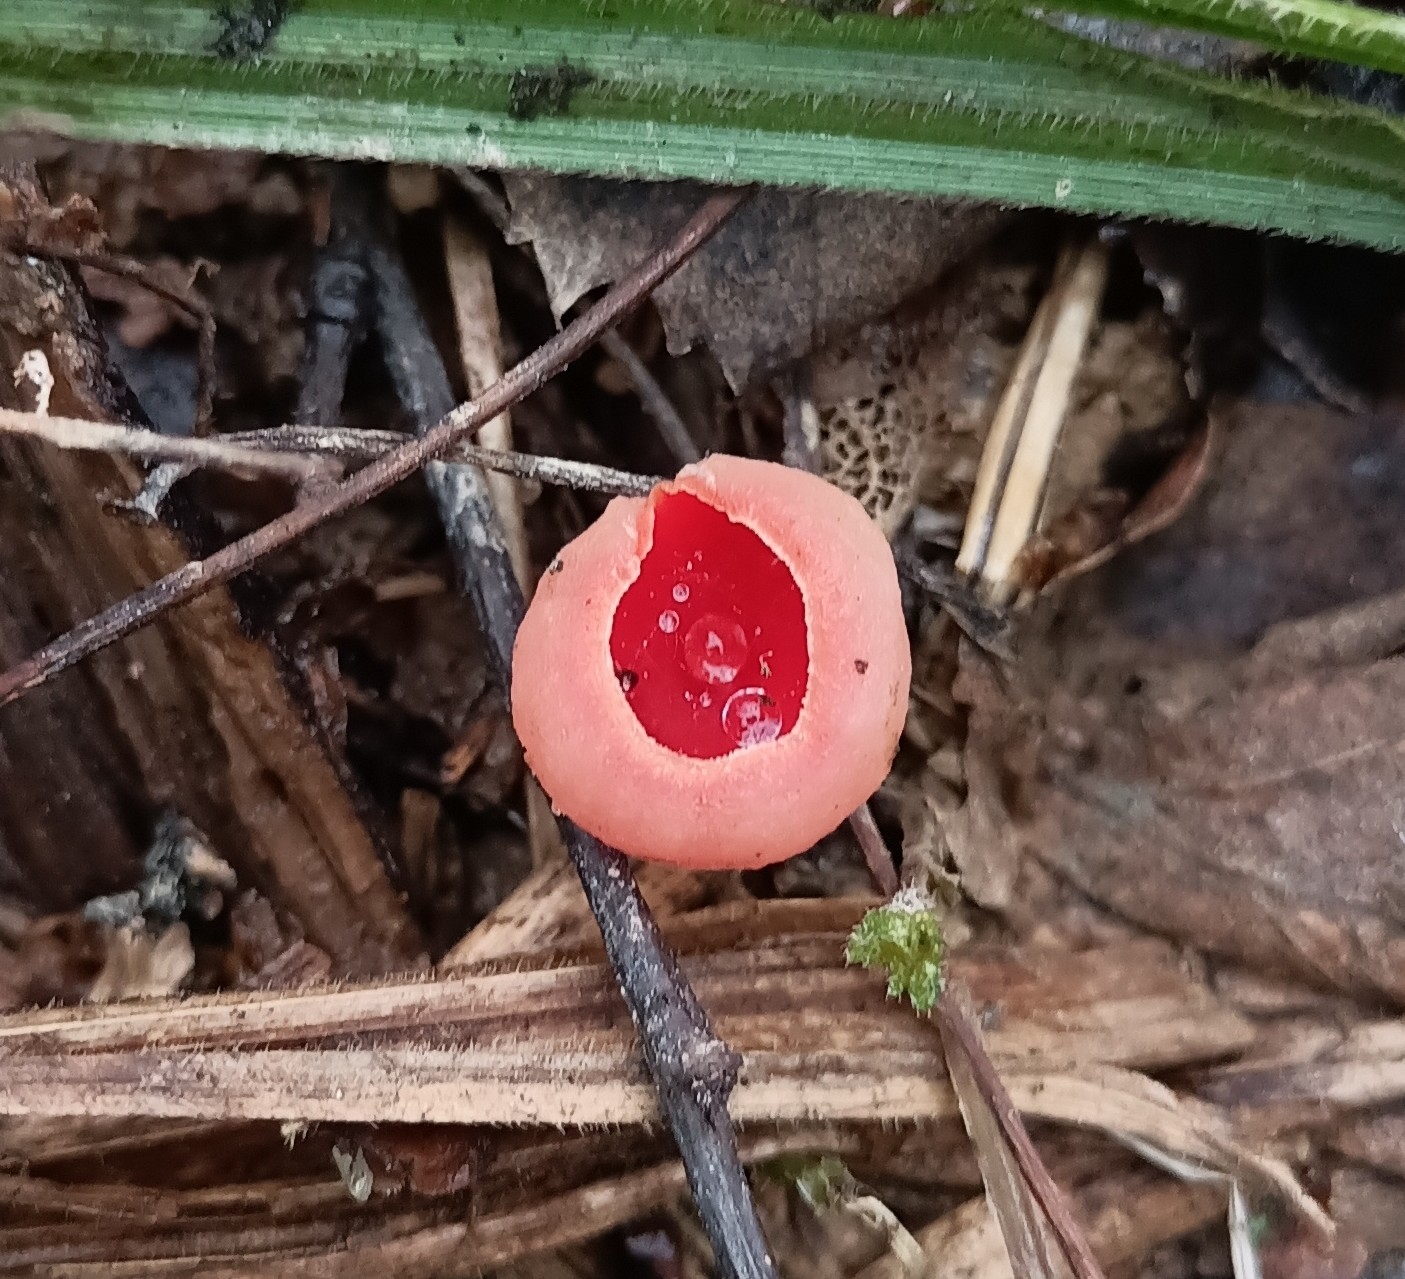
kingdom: Fungi
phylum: Ascomycota
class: Pezizomycetes
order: Pezizales
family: Sarcoscyphaceae
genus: Sarcoscypha
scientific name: Sarcoscypha austriaca
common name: Scarlet elfcup
